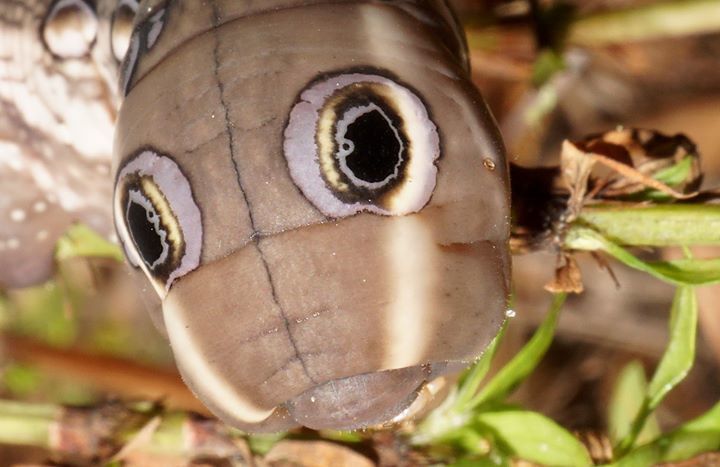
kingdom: Animalia
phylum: Arthropoda
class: Insecta
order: Lepidoptera
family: Sphingidae
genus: Xylophanes
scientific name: Xylophanes tersa
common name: Tersa sphinx
